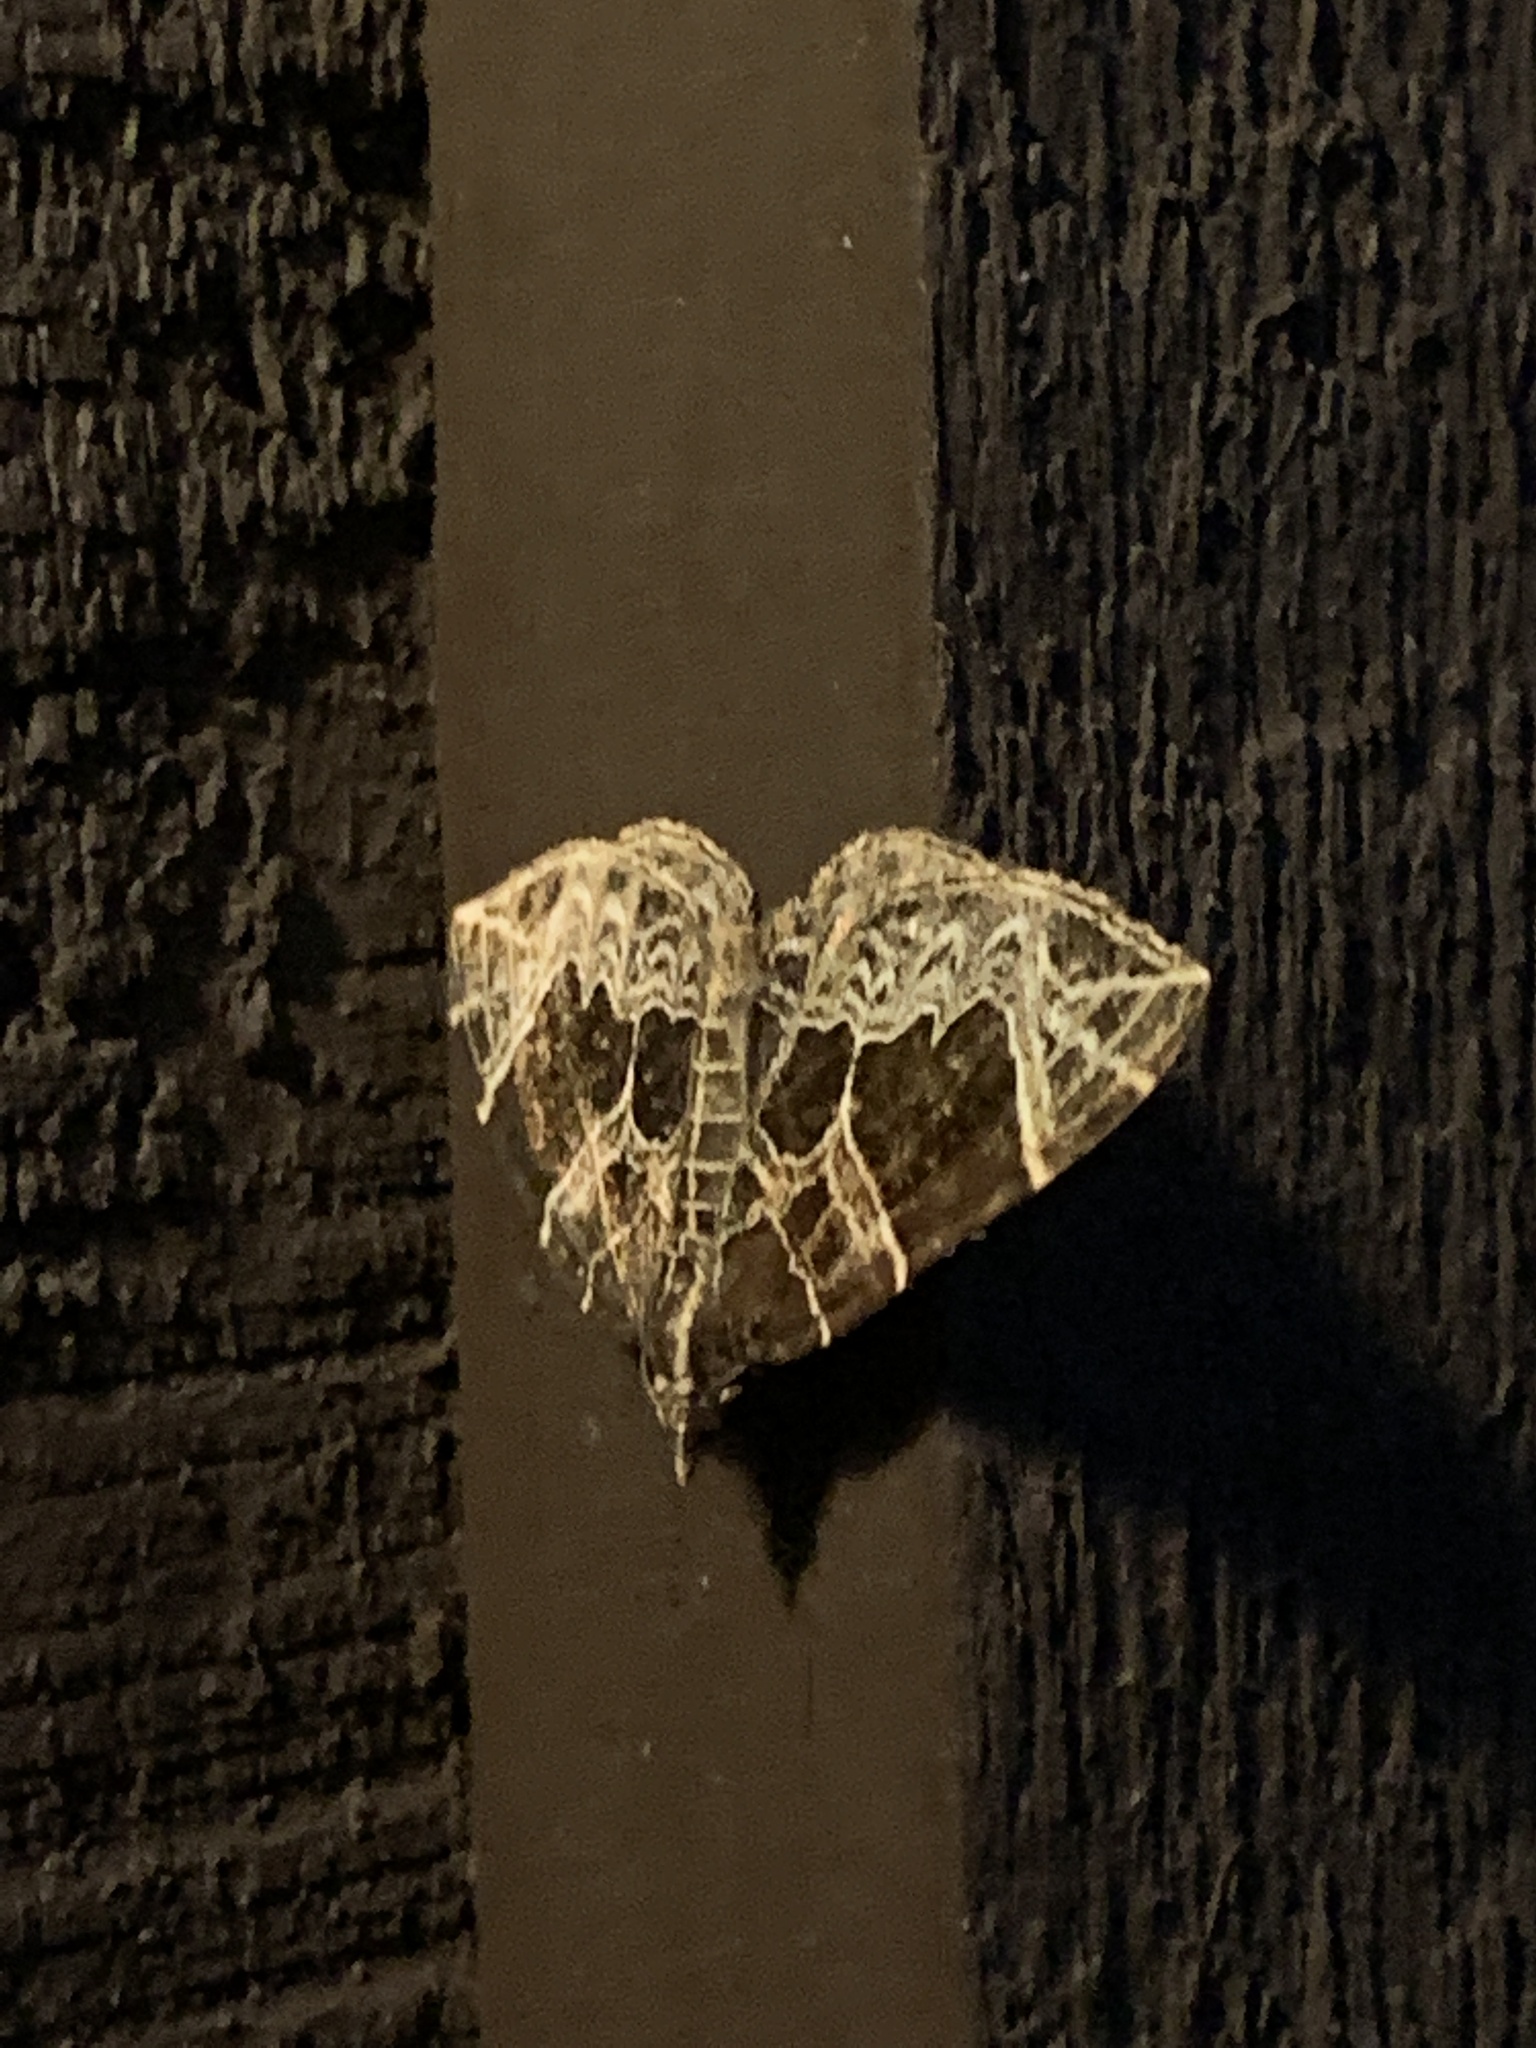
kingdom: Animalia
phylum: Arthropoda
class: Insecta
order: Lepidoptera
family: Geometridae
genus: Ecliptopera
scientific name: Ecliptopera atricolorata
